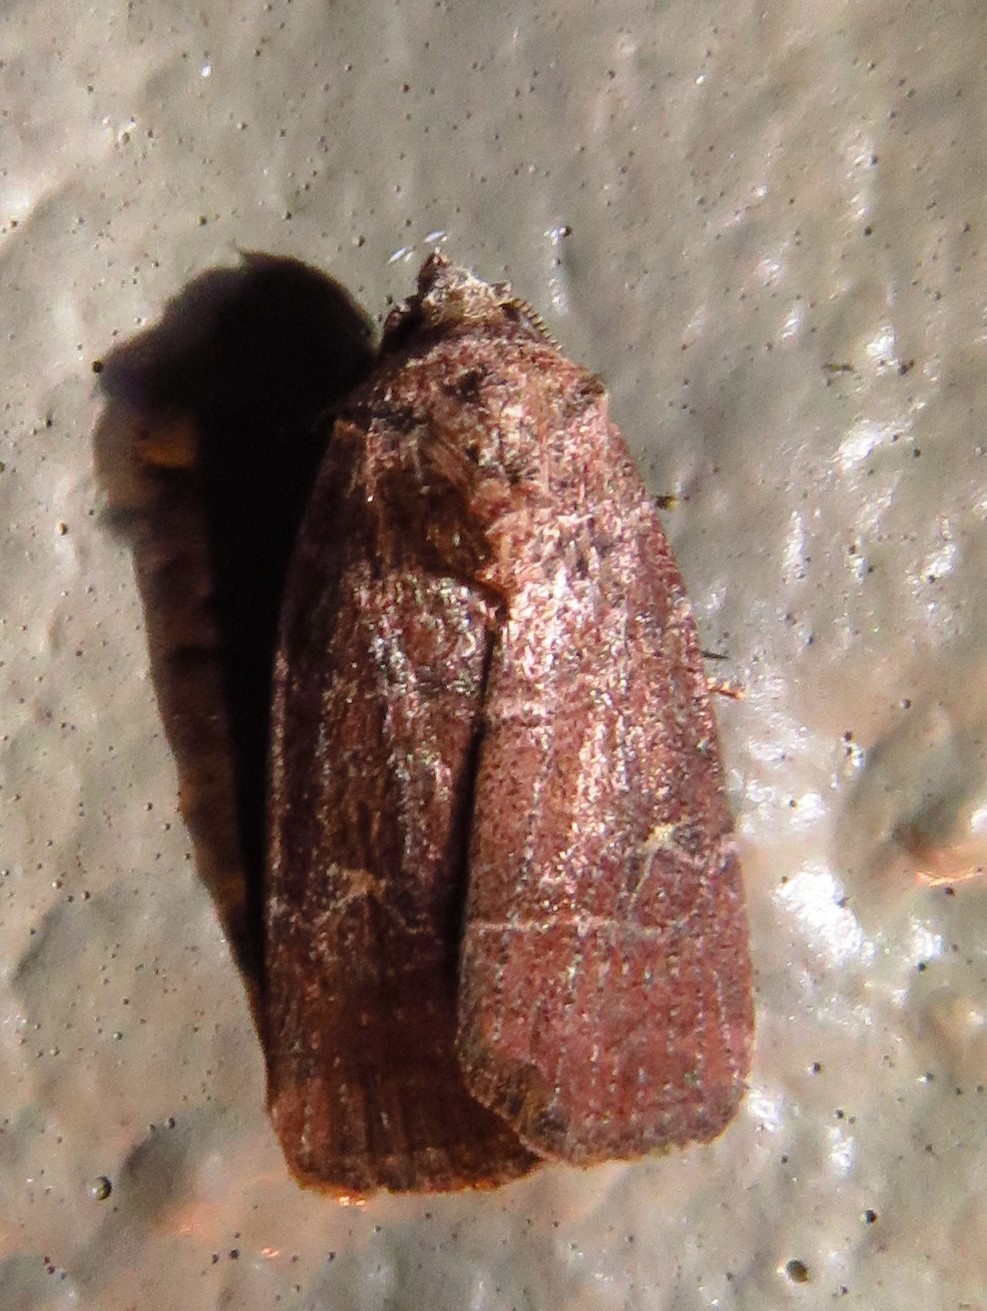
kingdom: Animalia
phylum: Arthropoda
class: Insecta
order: Lepidoptera
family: Noctuidae
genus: Elaphria
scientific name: Elaphria grata
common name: Grateful midget moth
